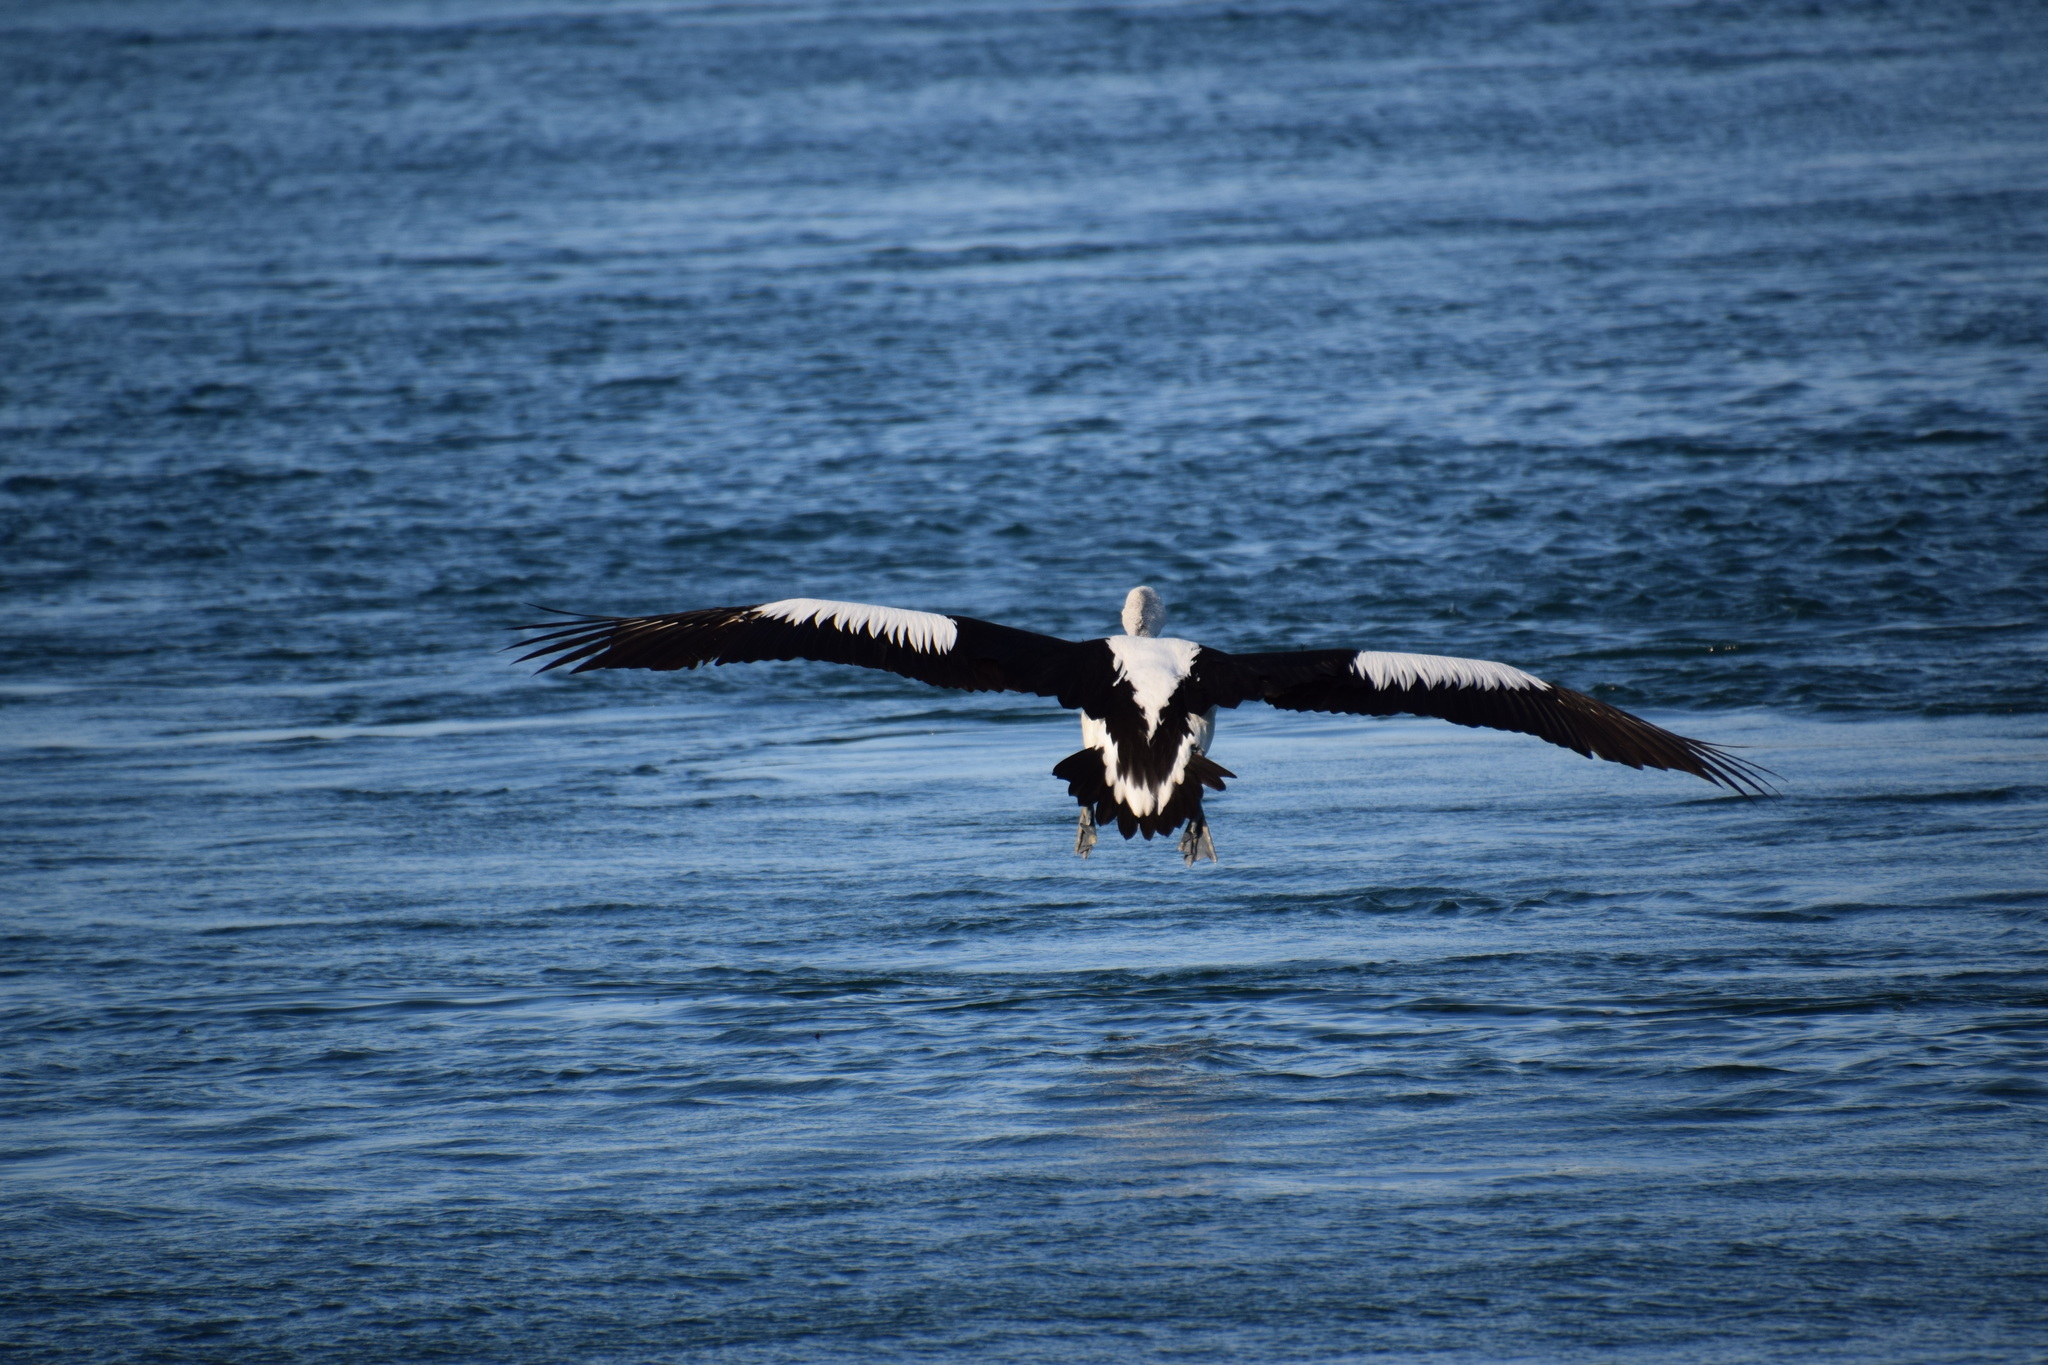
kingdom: Animalia
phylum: Chordata
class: Aves
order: Pelecaniformes
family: Pelecanidae
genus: Pelecanus
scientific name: Pelecanus conspicillatus
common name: Australian pelican
